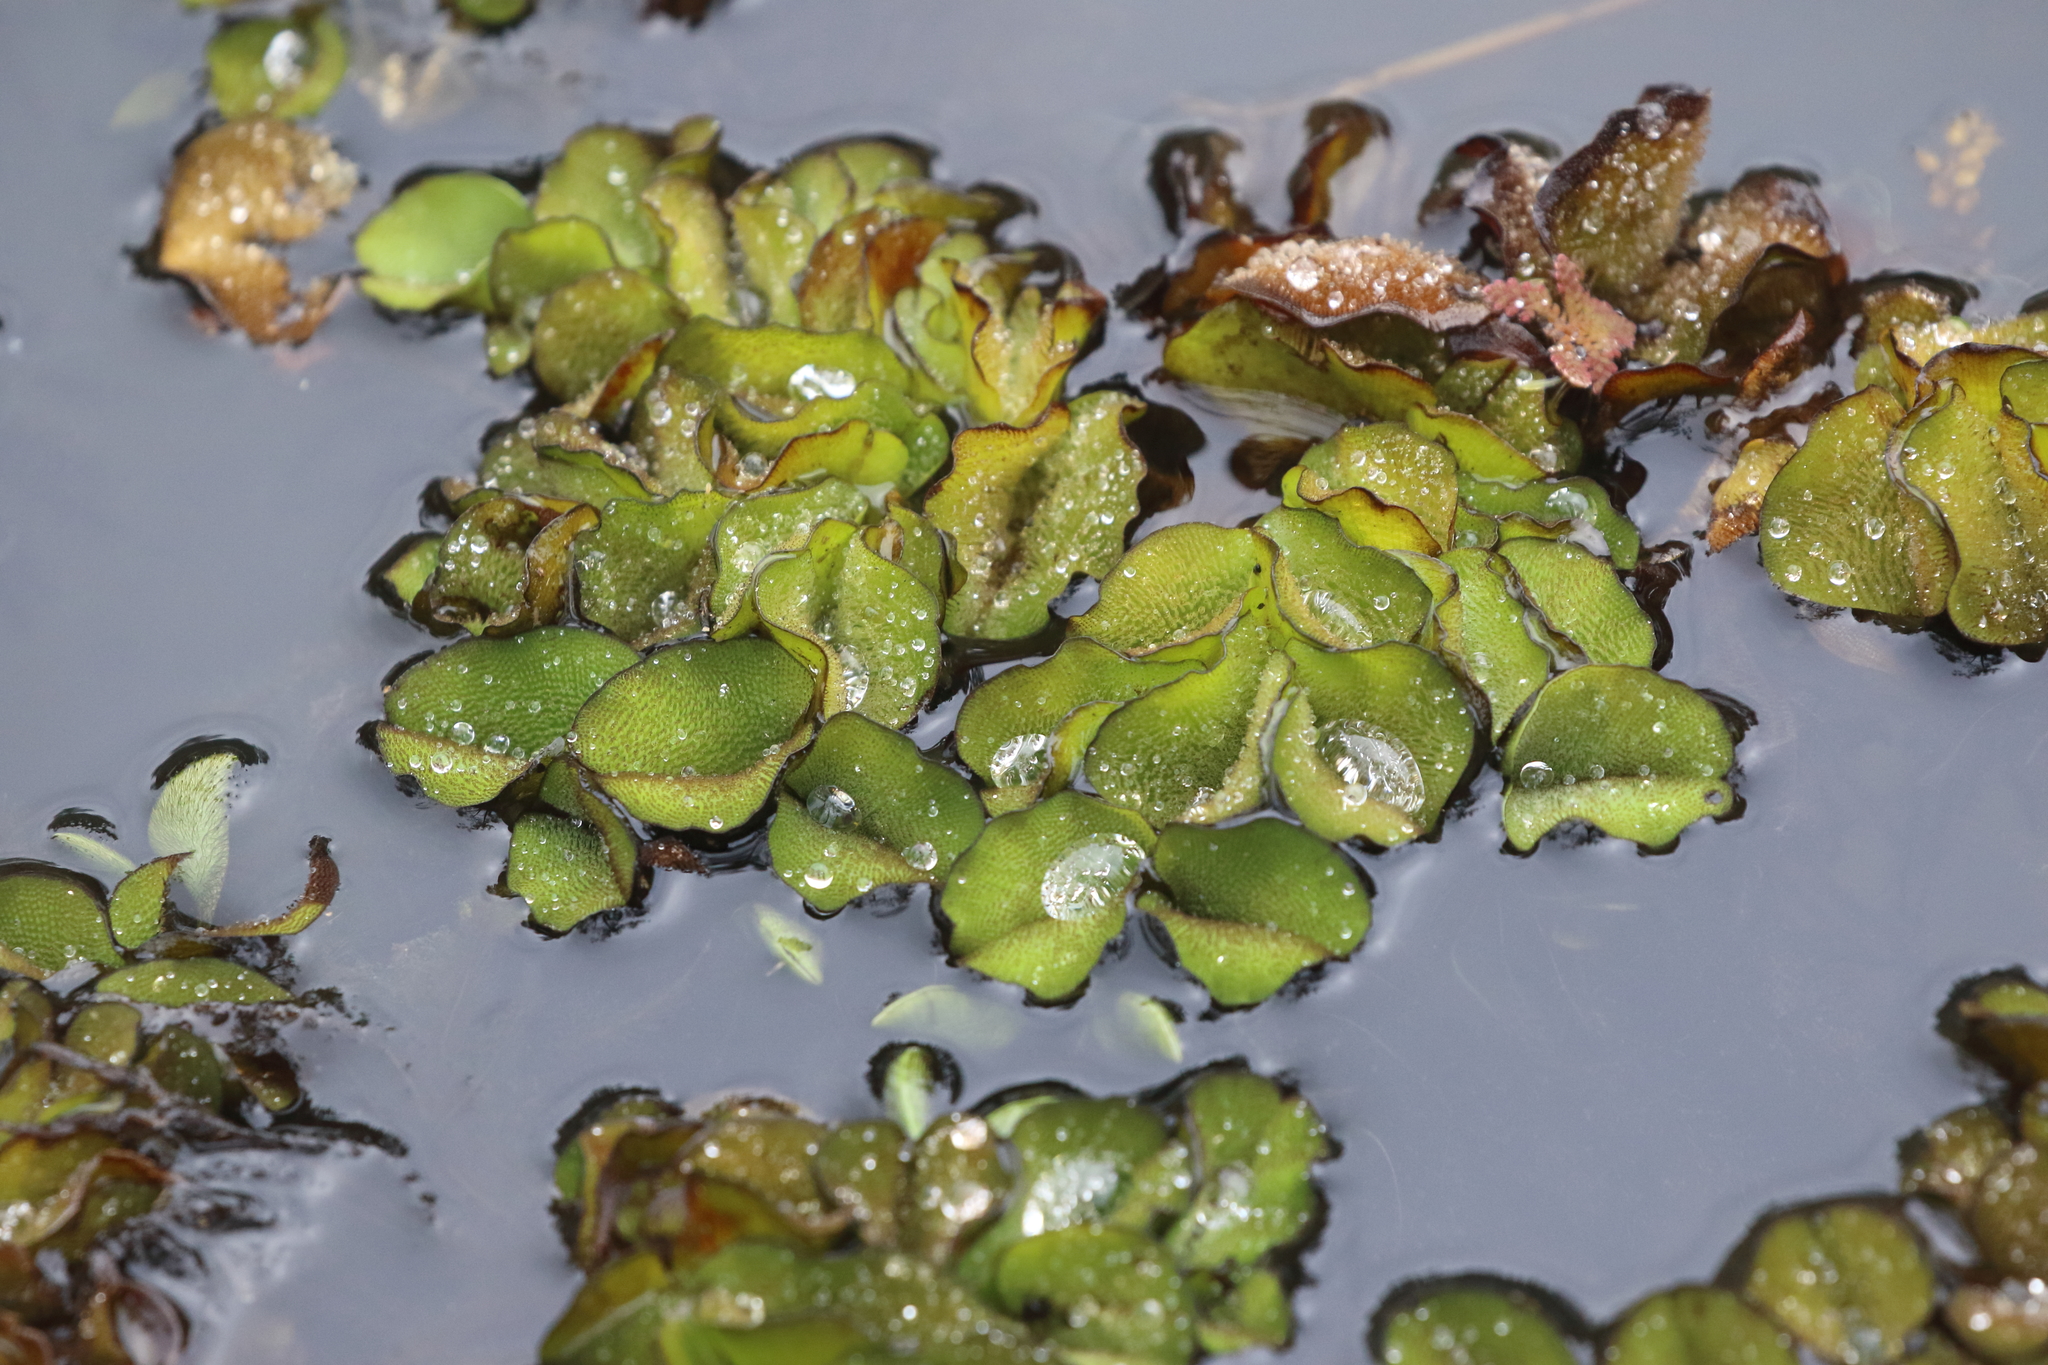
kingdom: Plantae
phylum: Tracheophyta
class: Polypodiopsida
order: Salviniales
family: Salviniaceae
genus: Salvinia
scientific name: Salvinia molesta
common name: Kariba weed
